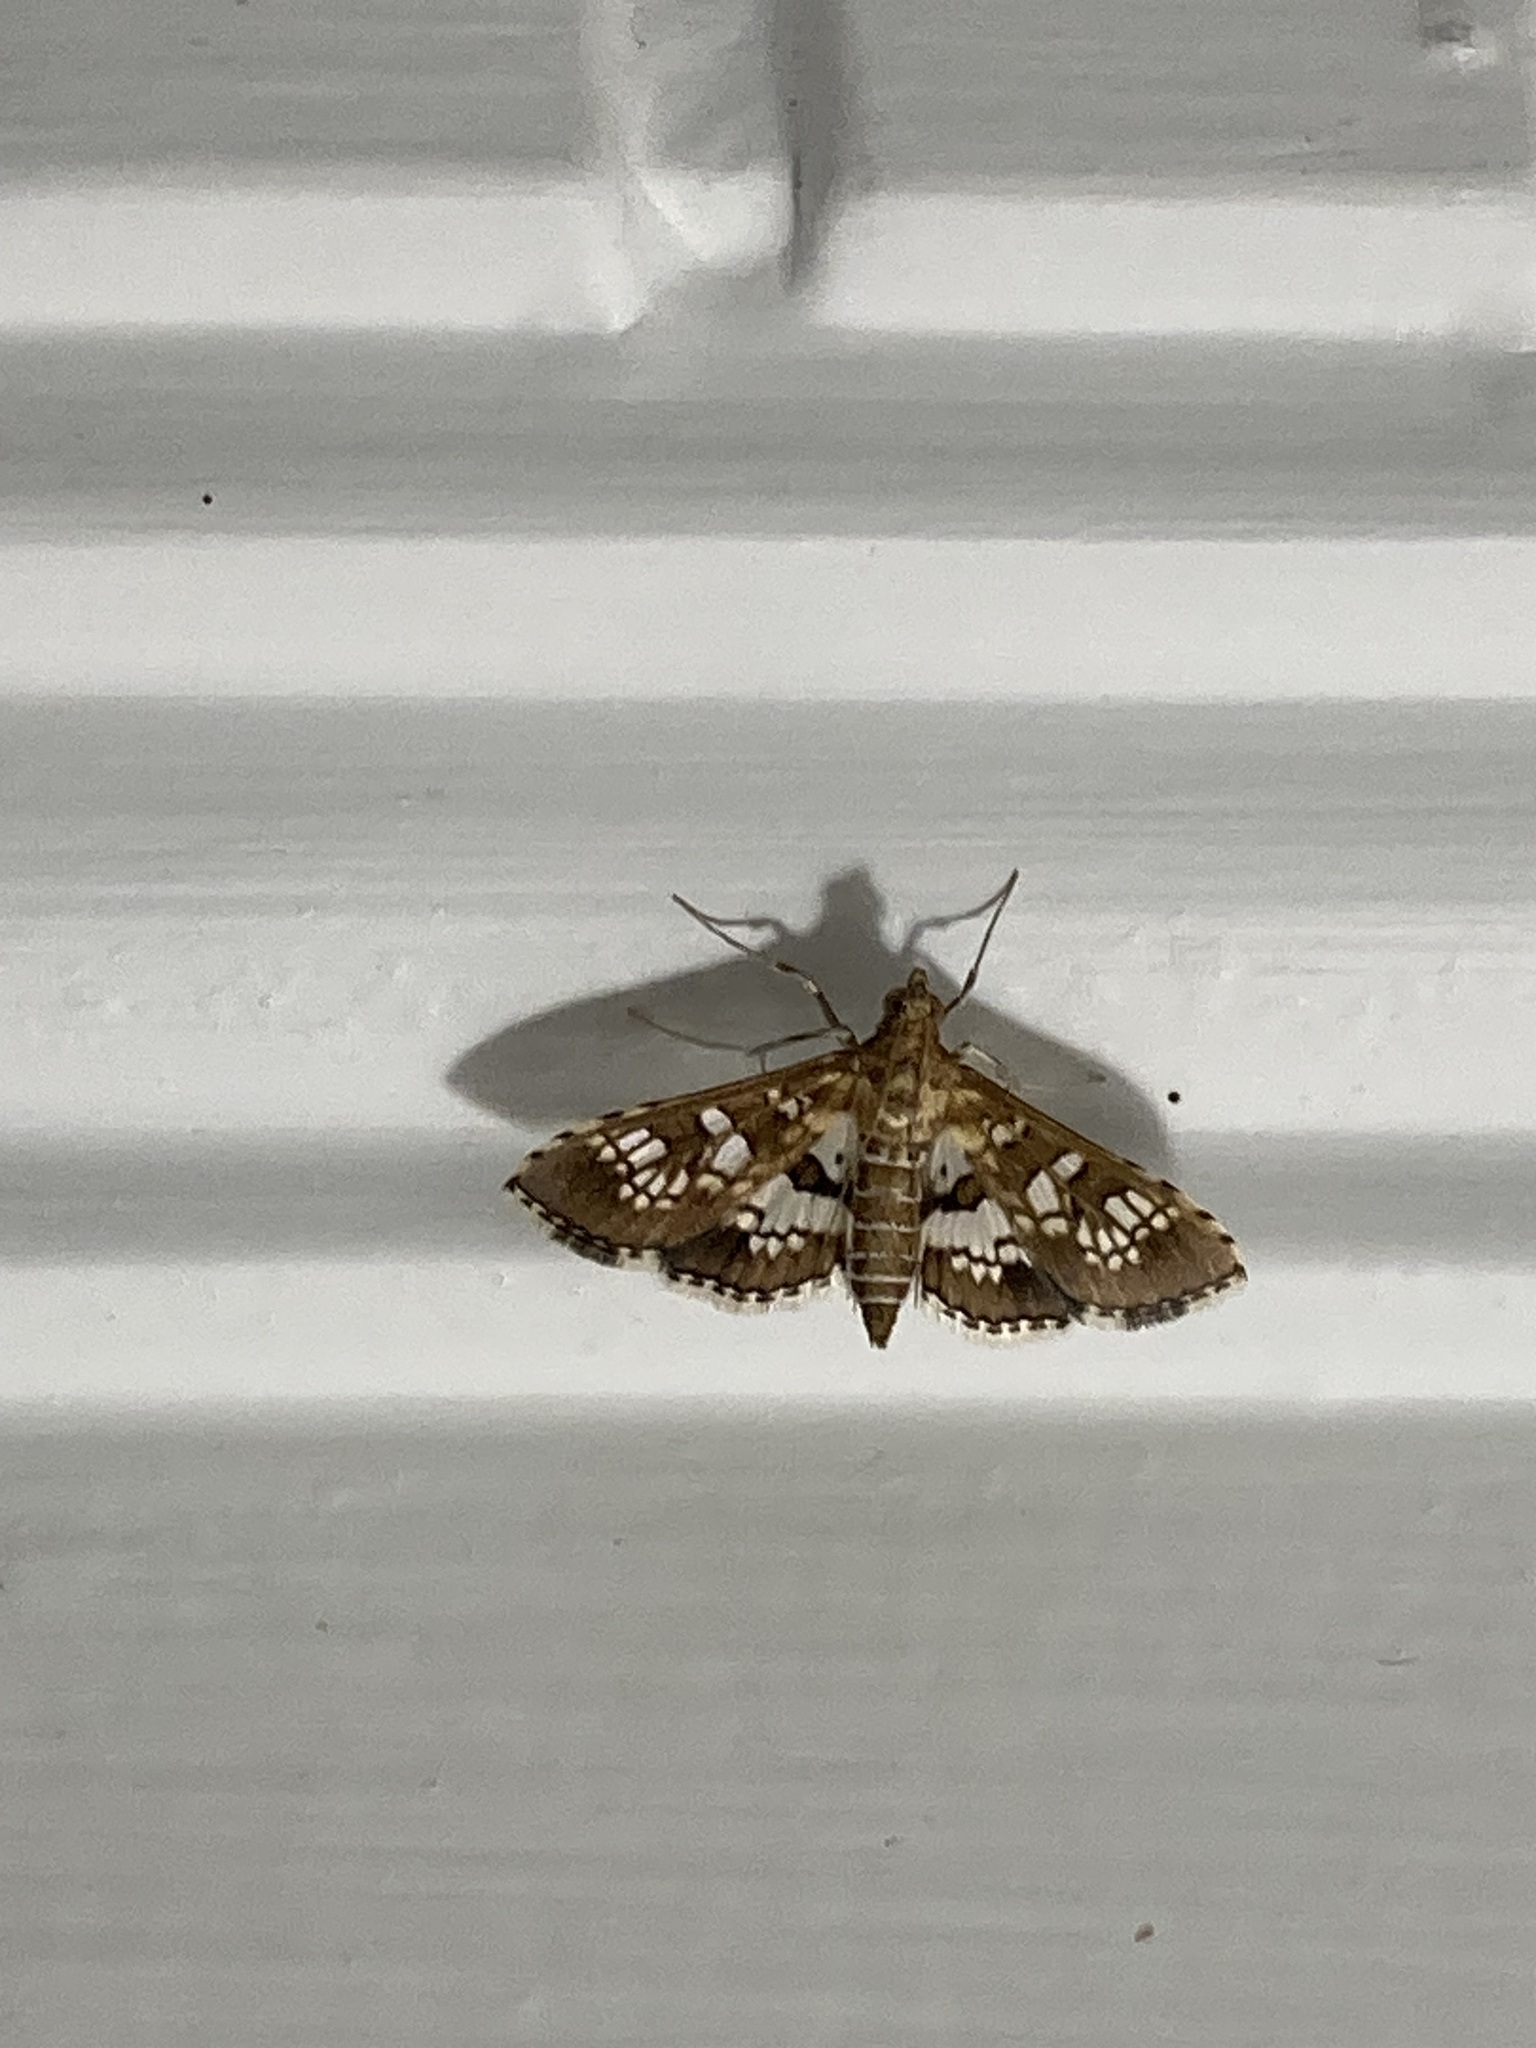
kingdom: Animalia
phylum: Arthropoda
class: Insecta
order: Lepidoptera
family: Crambidae
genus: Sameodes
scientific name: Sameodes cancellalis
